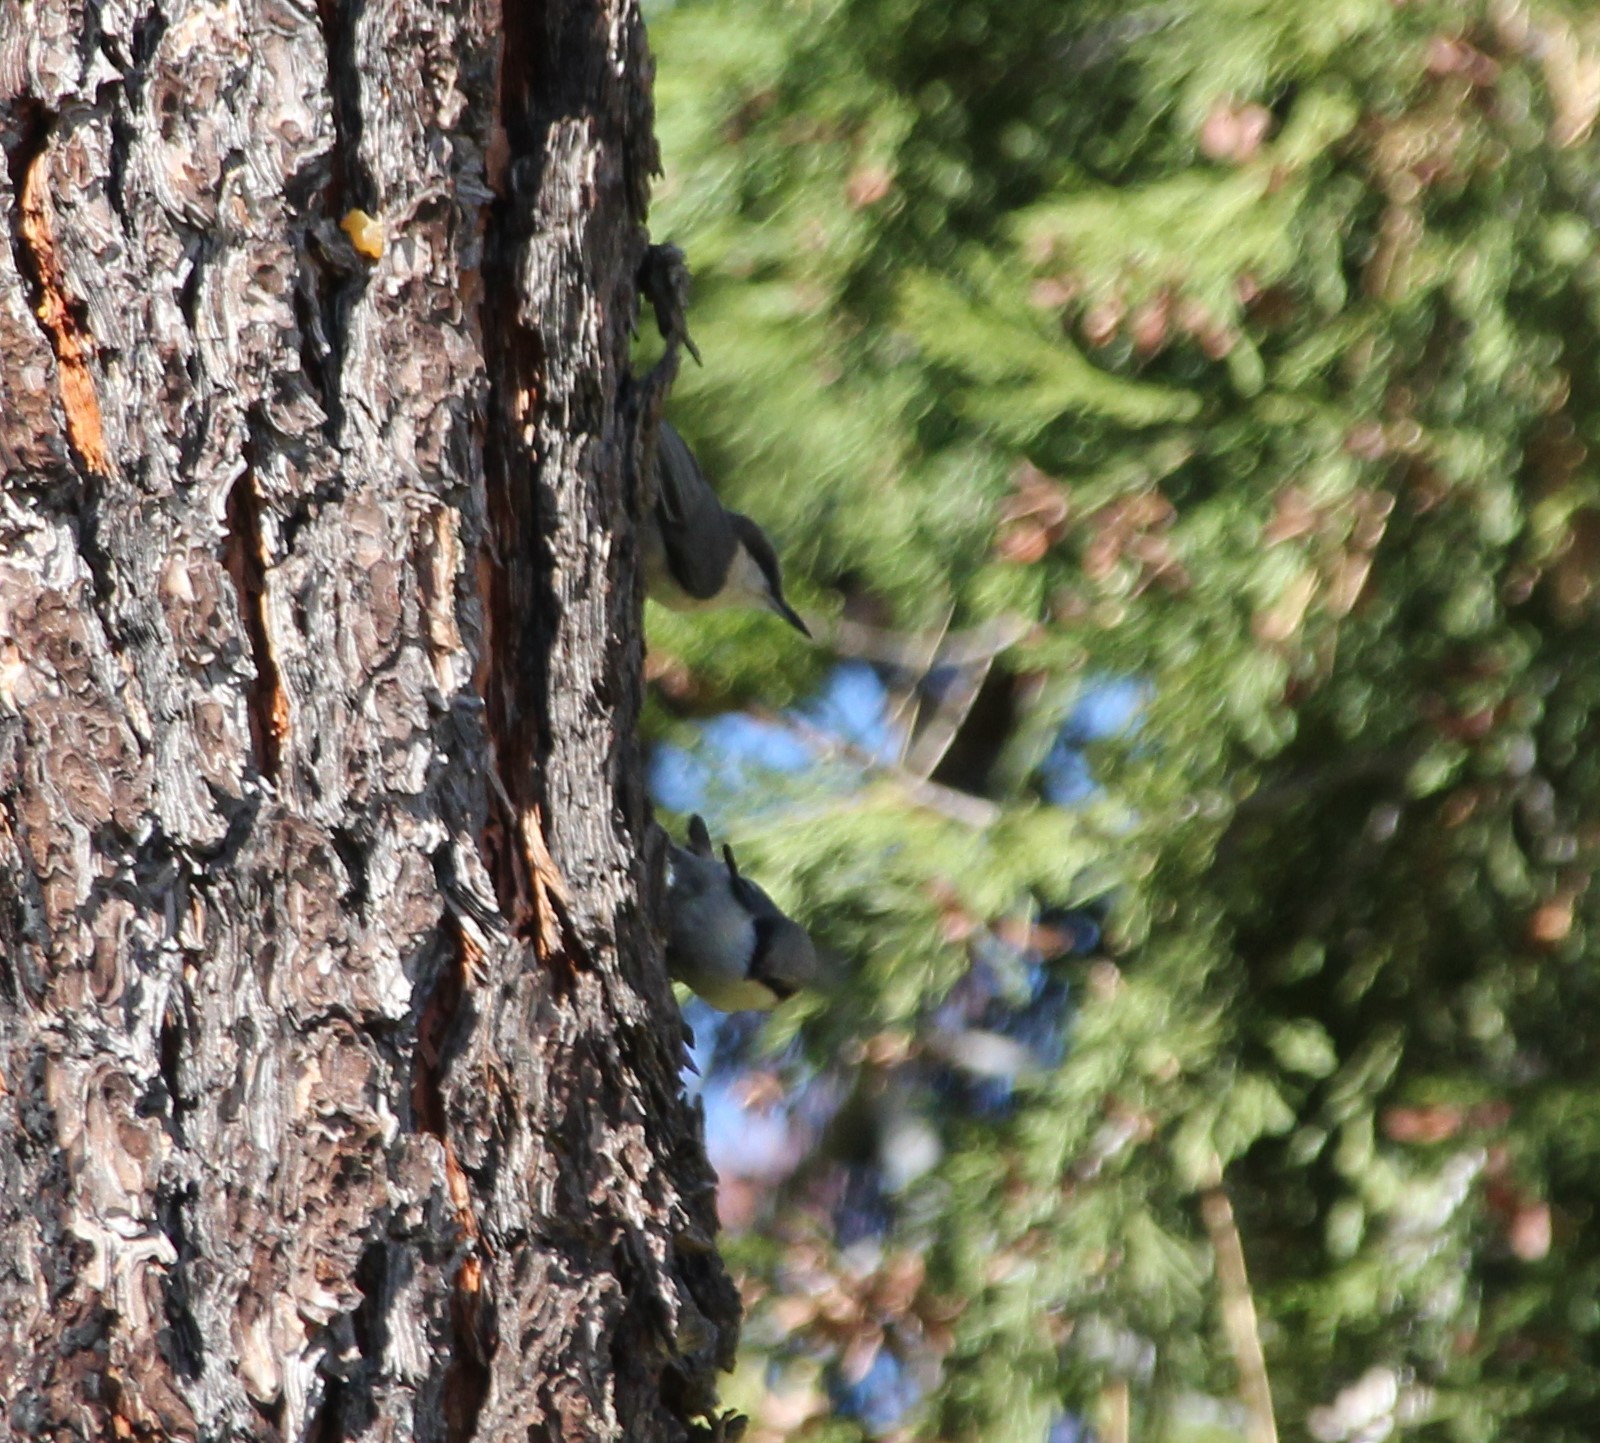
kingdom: Animalia
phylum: Chordata
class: Aves
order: Passeriformes
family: Sittidae
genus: Sitta
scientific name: Sitta pygmaea
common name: Pygmy nuthatch
